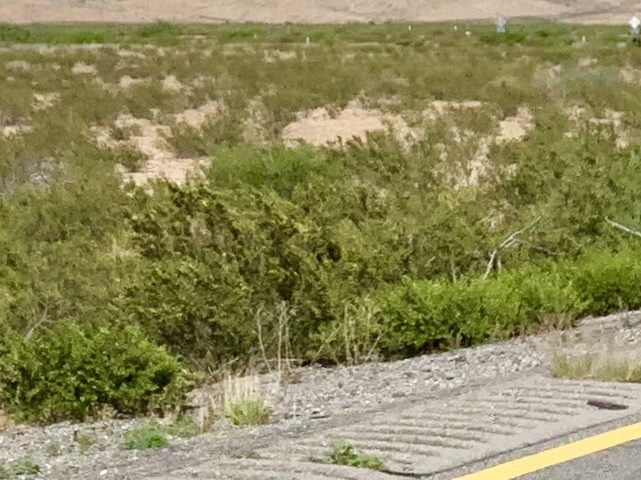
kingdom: Plantae
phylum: Tracheophyta
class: Magnoliopsida
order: Zygophyllales
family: Zygophyllaceae
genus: Larrea
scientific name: Larrea tridentata
